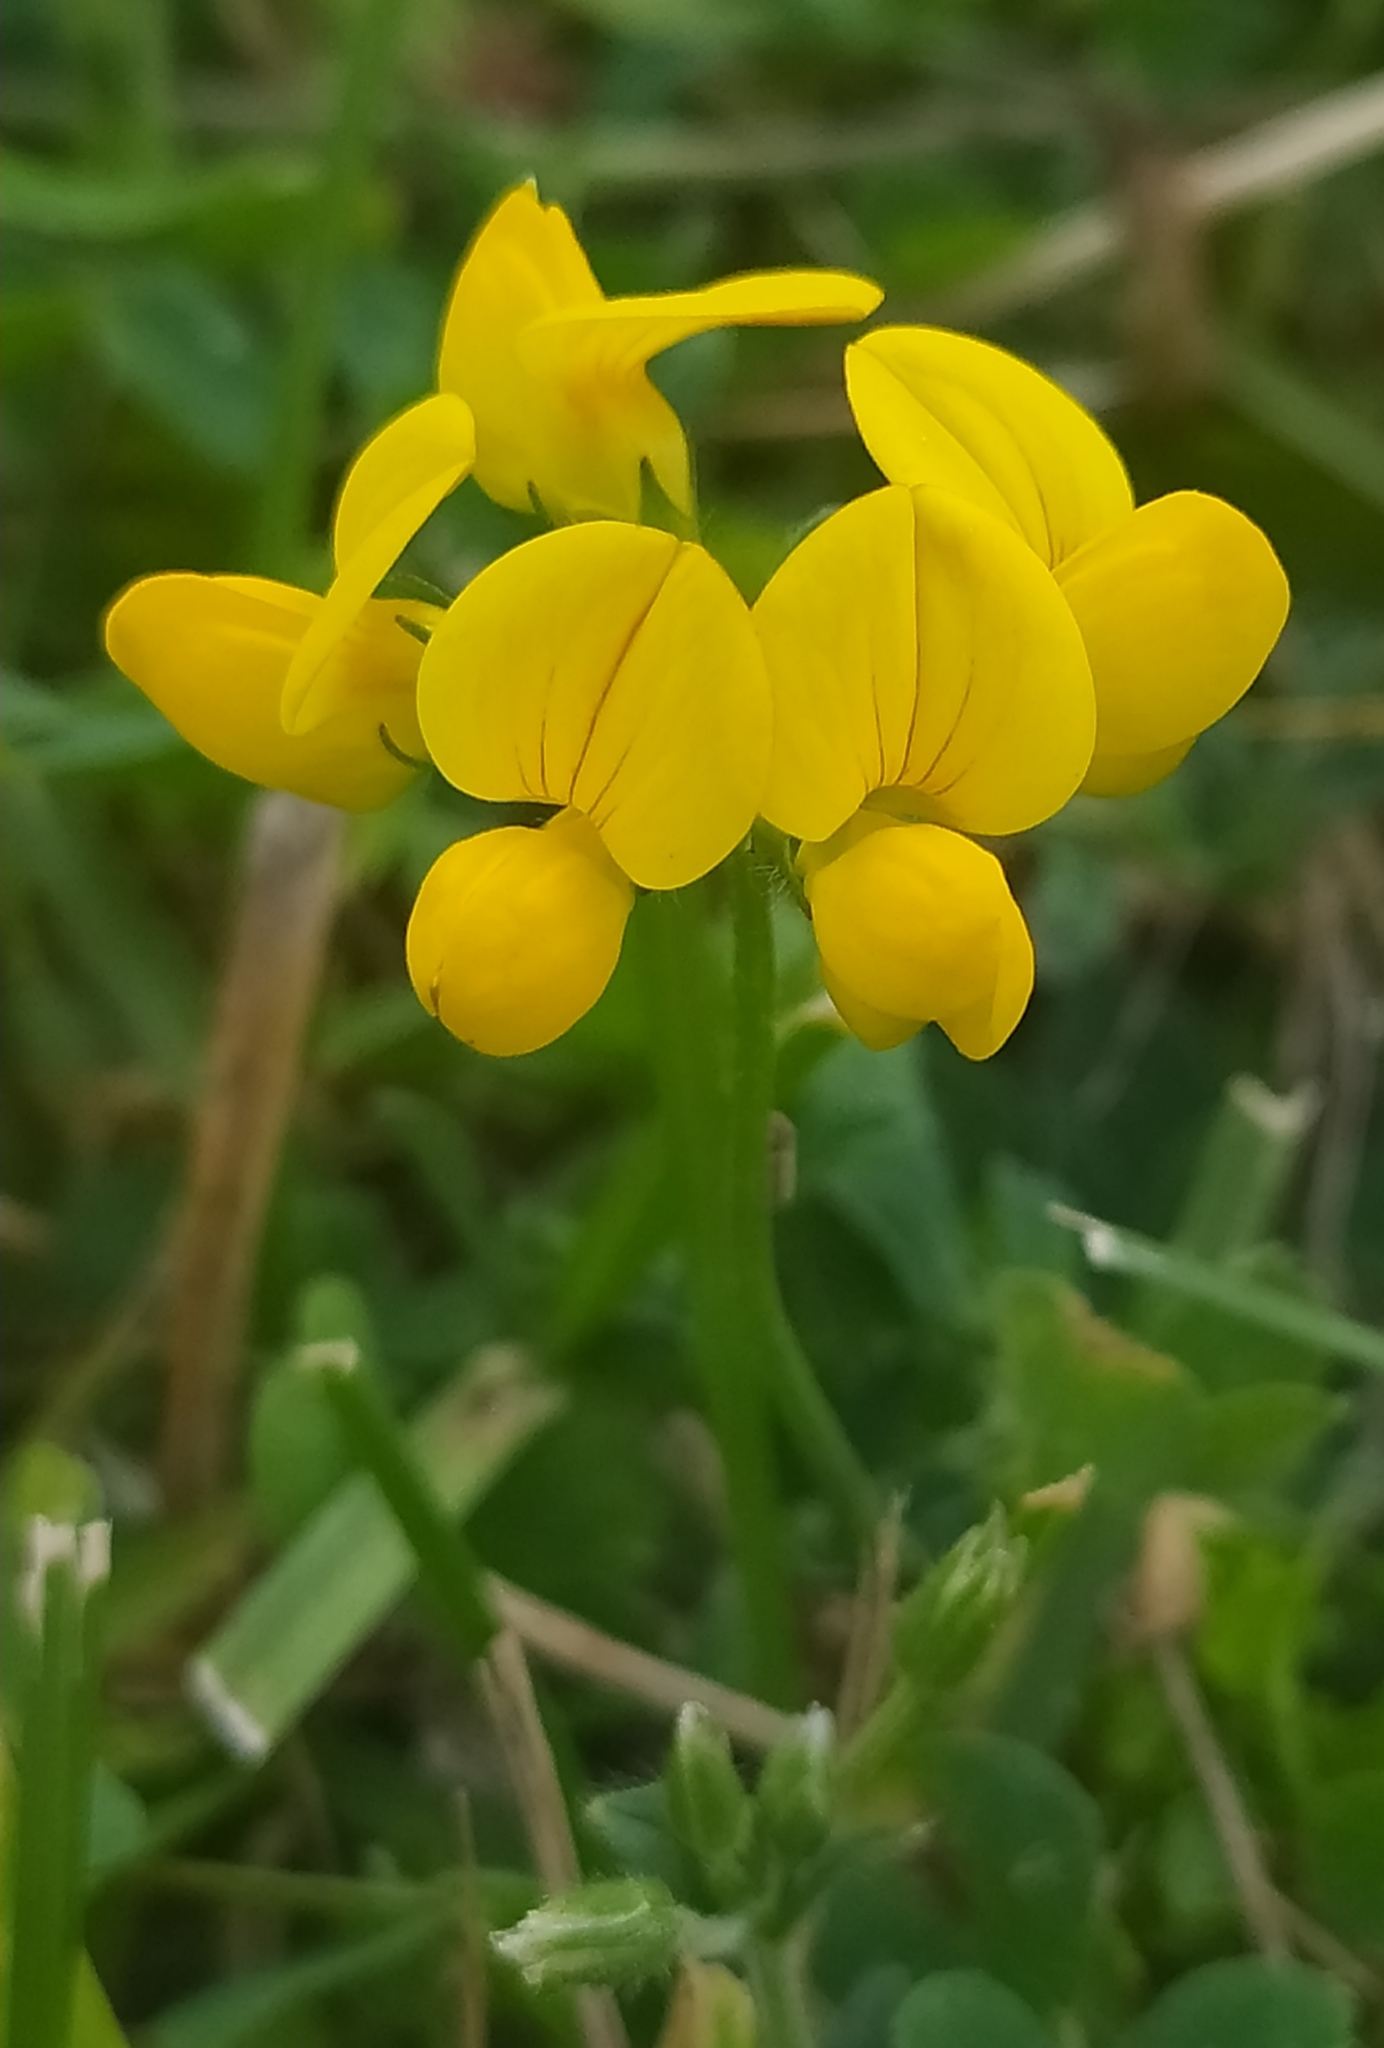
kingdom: Plantae
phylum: Tracheophyta
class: Magnoliopsida
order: Fabales
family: Fabaceae
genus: Lotus
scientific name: Lotus corniculatus
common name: Common bird's-foot-trefoil
